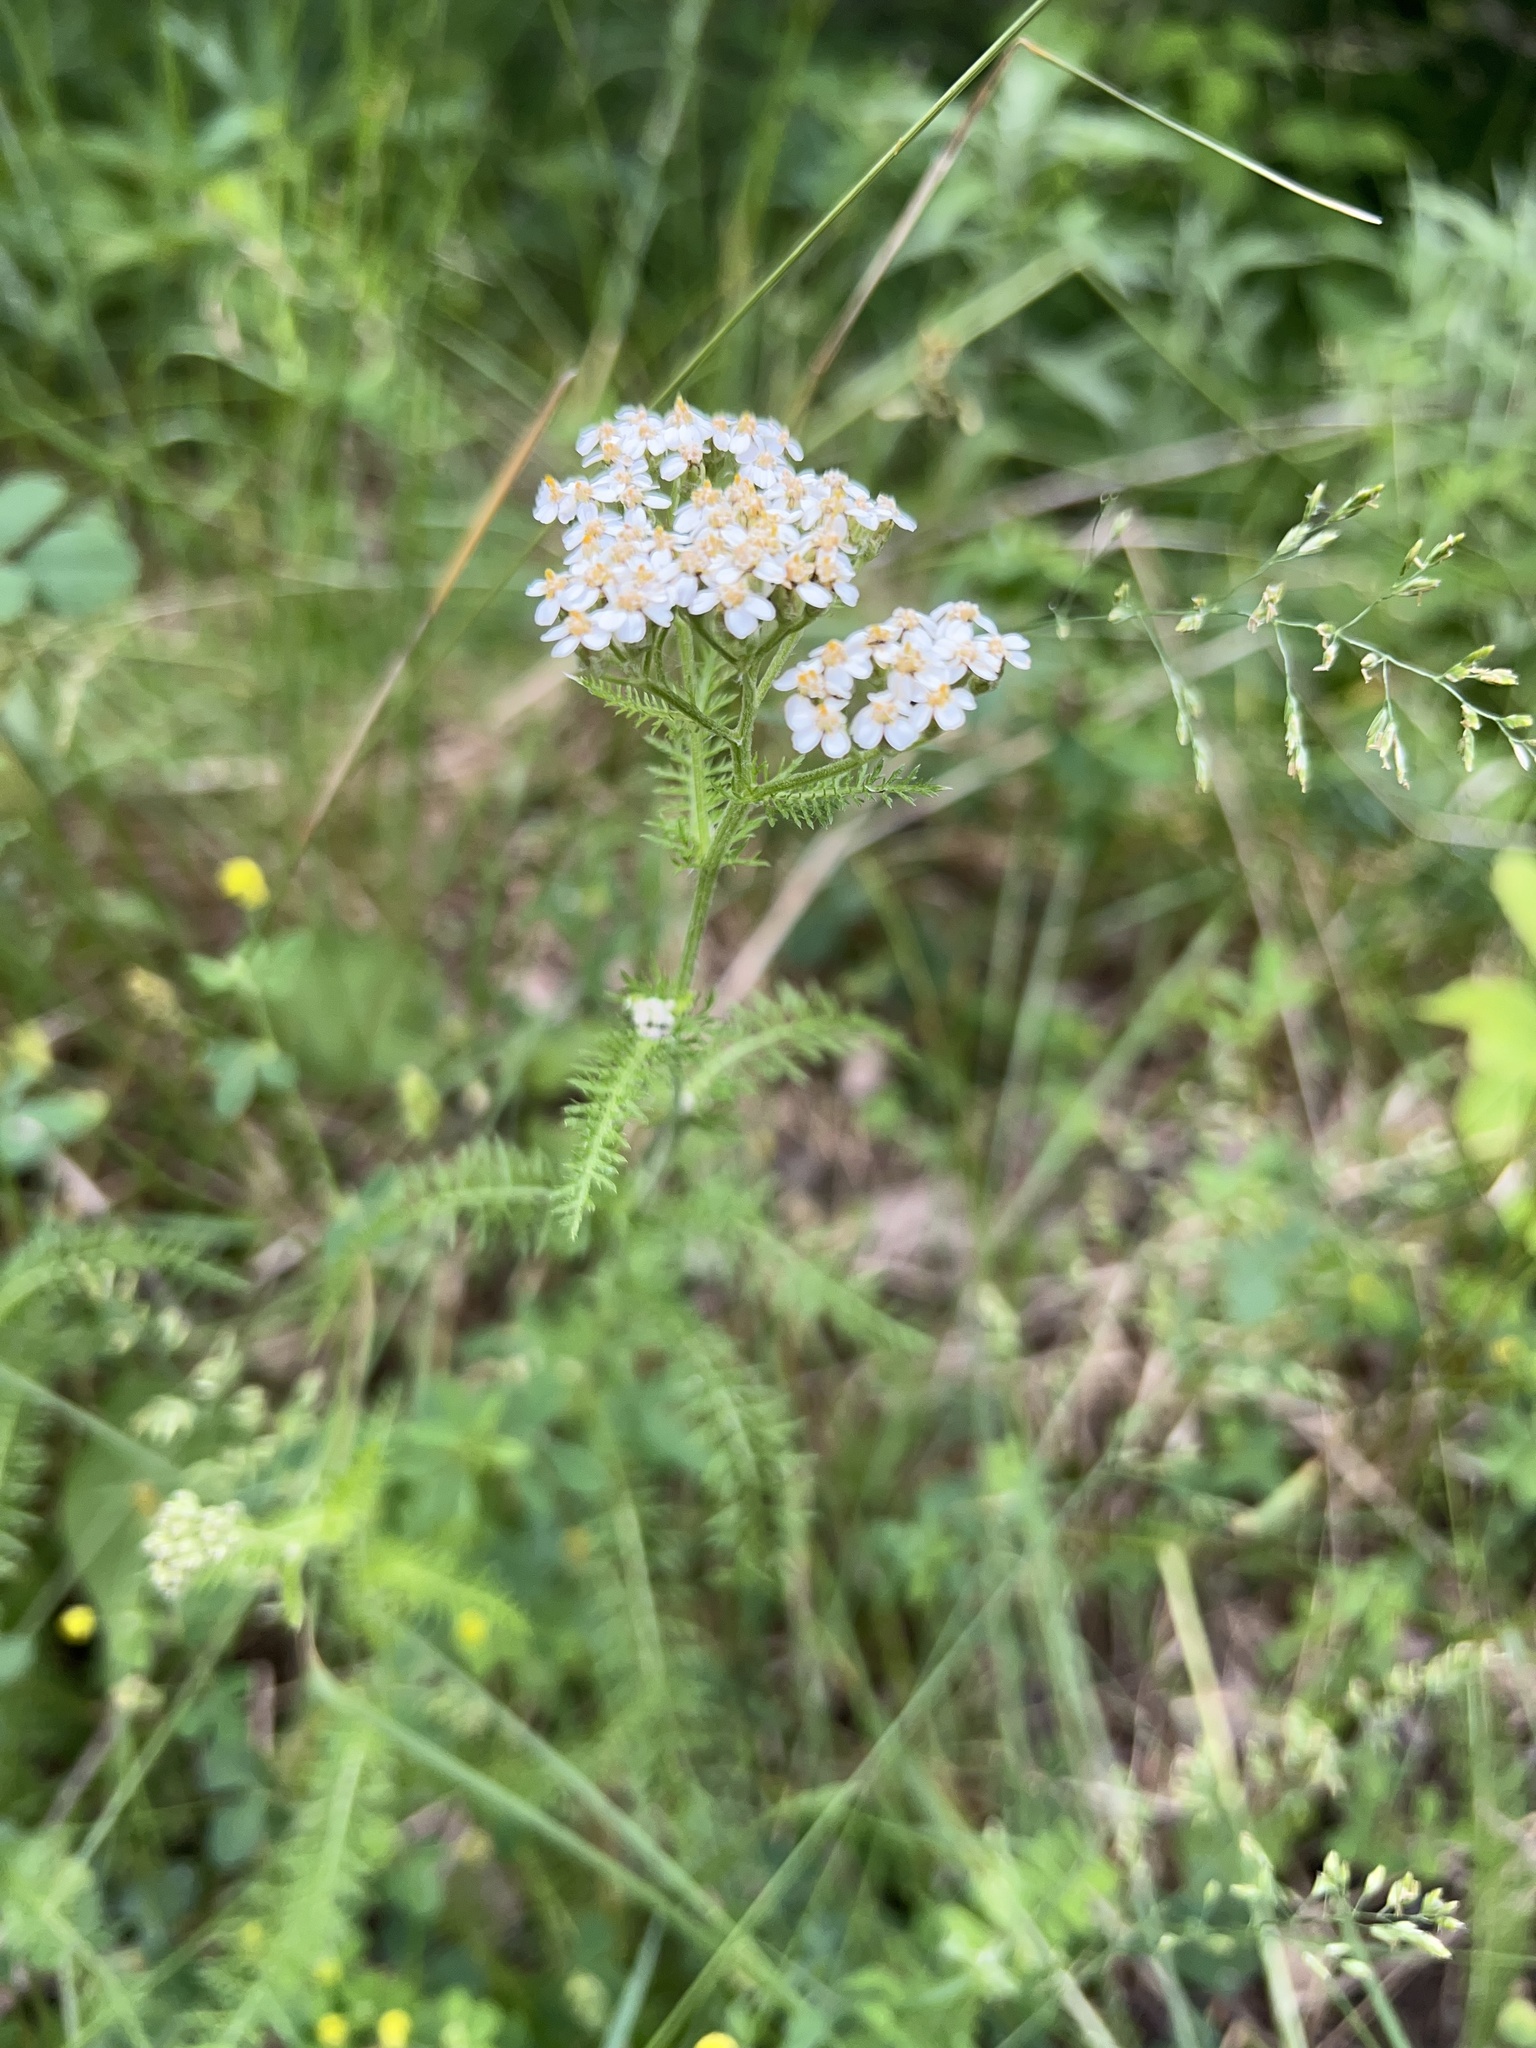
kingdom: Plantae
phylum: Tracheophyta
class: Magnoliopsida
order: Asterales
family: Asteraceae
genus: Achillea
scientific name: Achillea millefolium
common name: Yarrow
